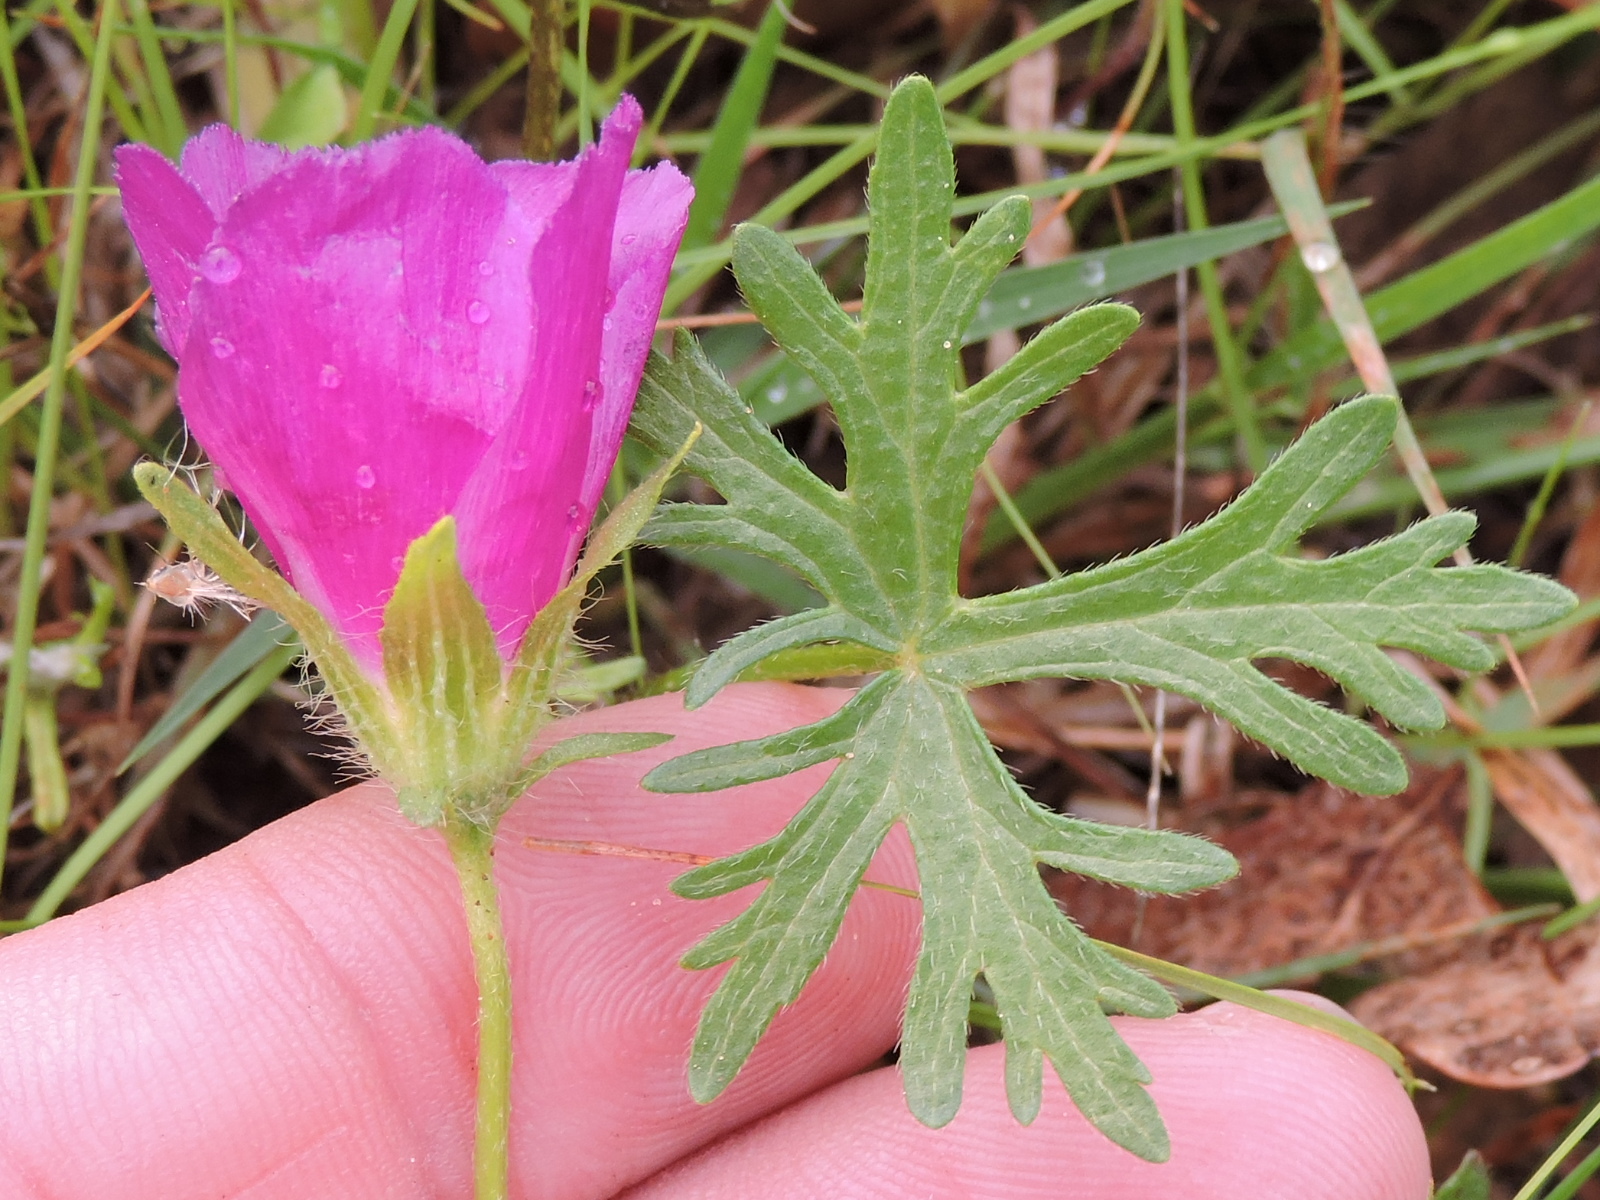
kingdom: Plantae
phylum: Tracheophyta
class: Magnoliopsida
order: Malvales
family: Malvaceae
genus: Callirhoe
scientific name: Callirhoe involucrata
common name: Purple poppy-mallow
